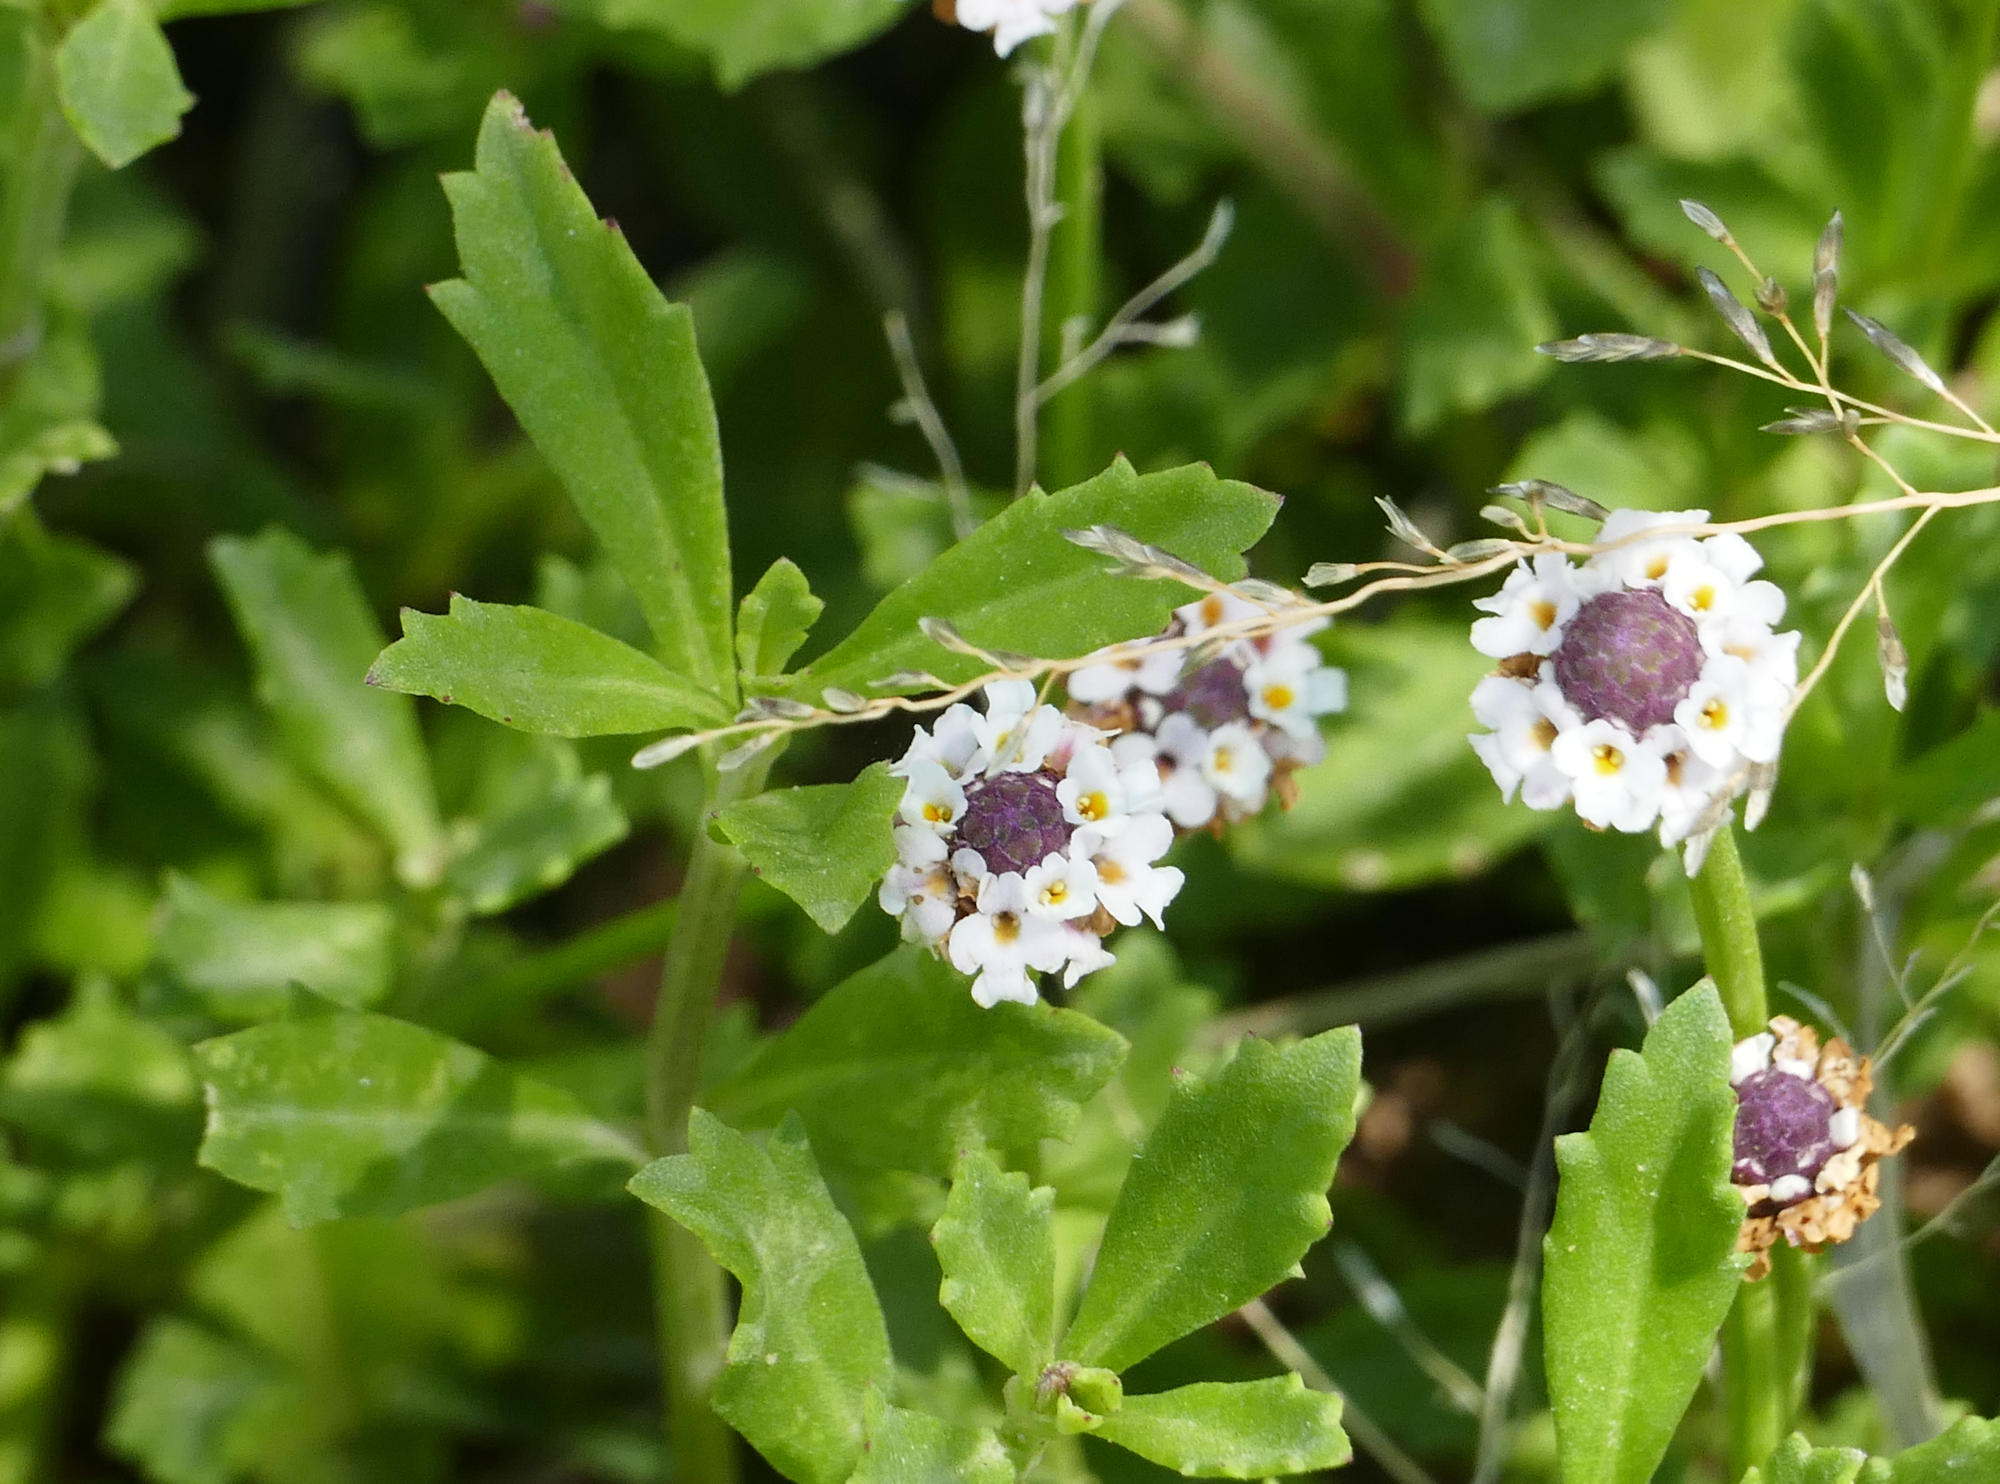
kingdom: Plantae
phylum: Tracheophyta
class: Magnoliopsida
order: Lamiales
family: Verbenaceae
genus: Phyla
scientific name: Phyla nodiflora
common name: Frogfruit
